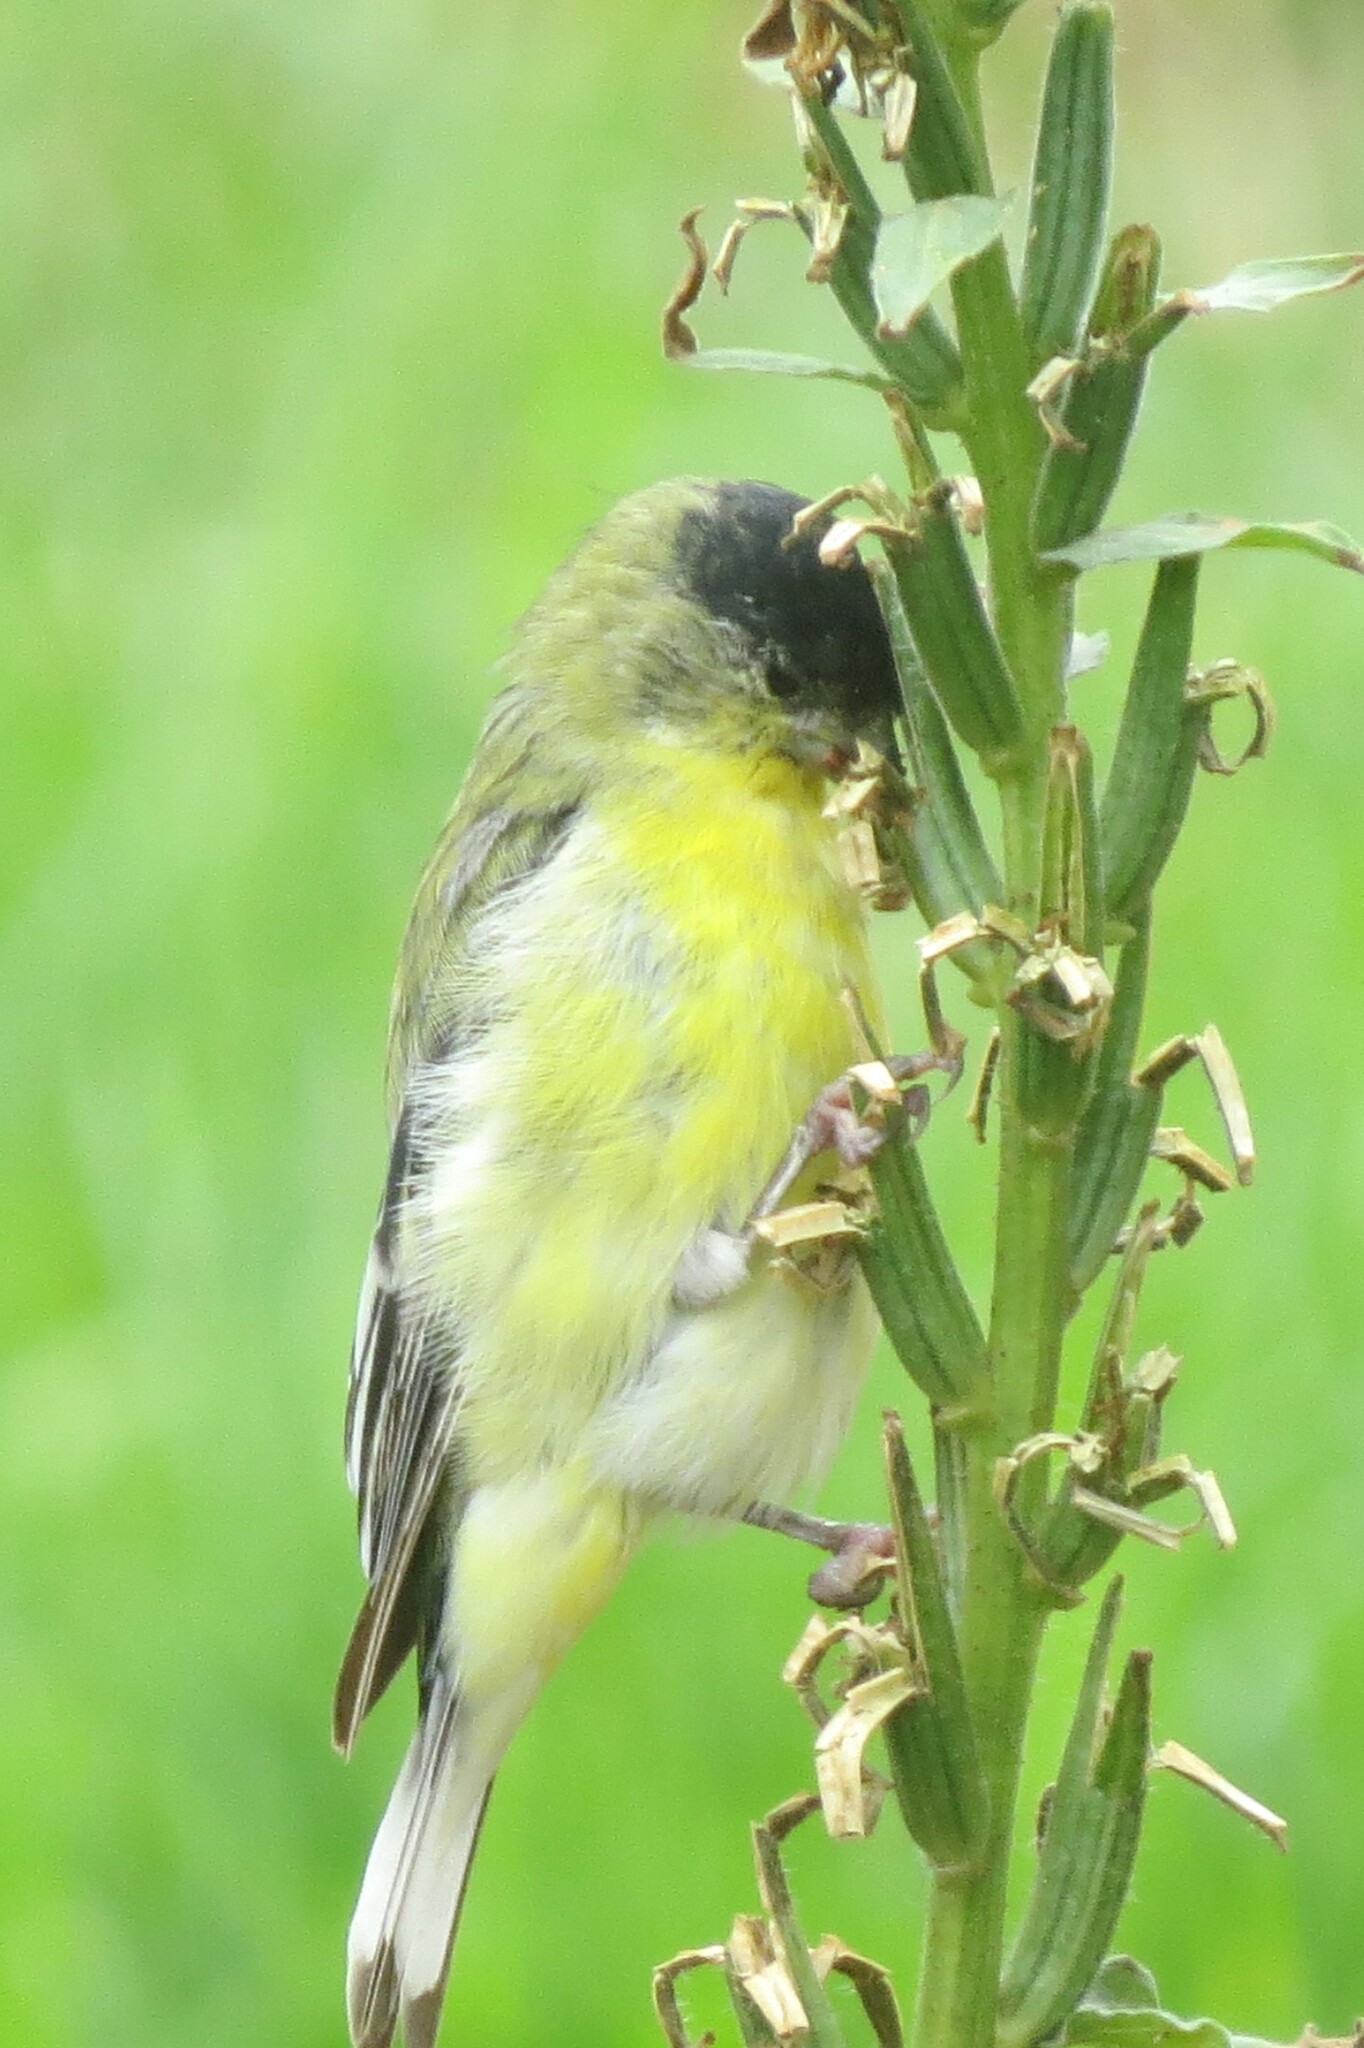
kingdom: Animalia
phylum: Chordata
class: Aves
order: Passeriformes
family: Fringillidae
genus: Spinus
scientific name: Spinus psaltria
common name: Lesser goldfinch
